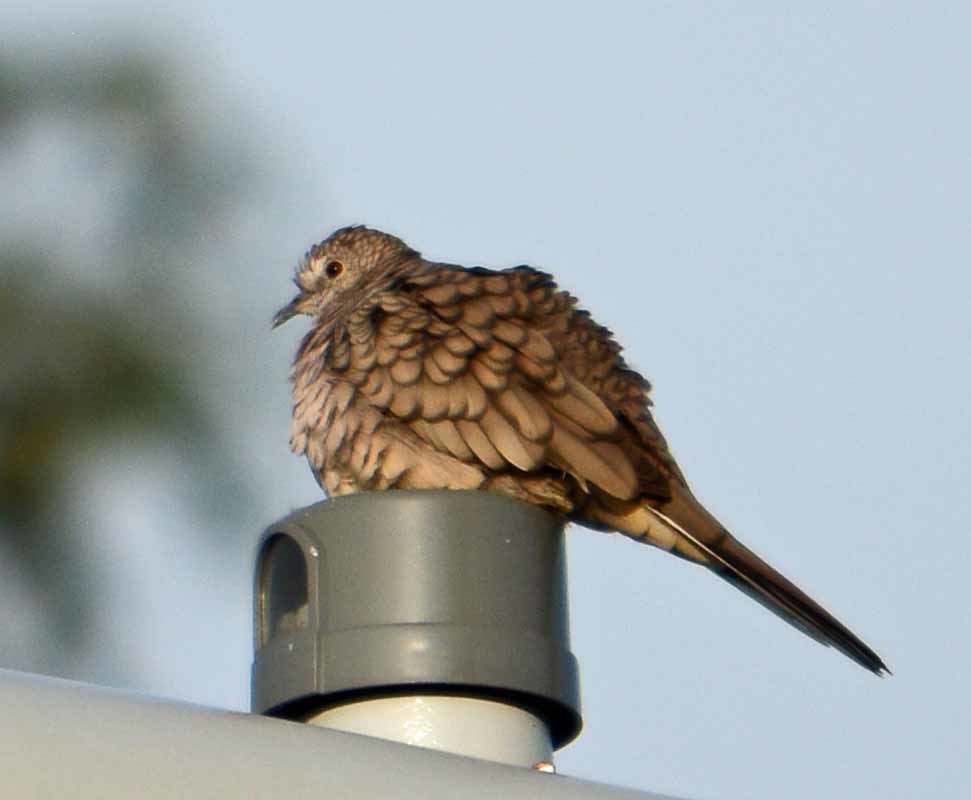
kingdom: Animalia
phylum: Chordata
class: Aves
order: Columbiformes
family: Columbidae
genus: Columbina
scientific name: Columbina inca
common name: Inca dove
